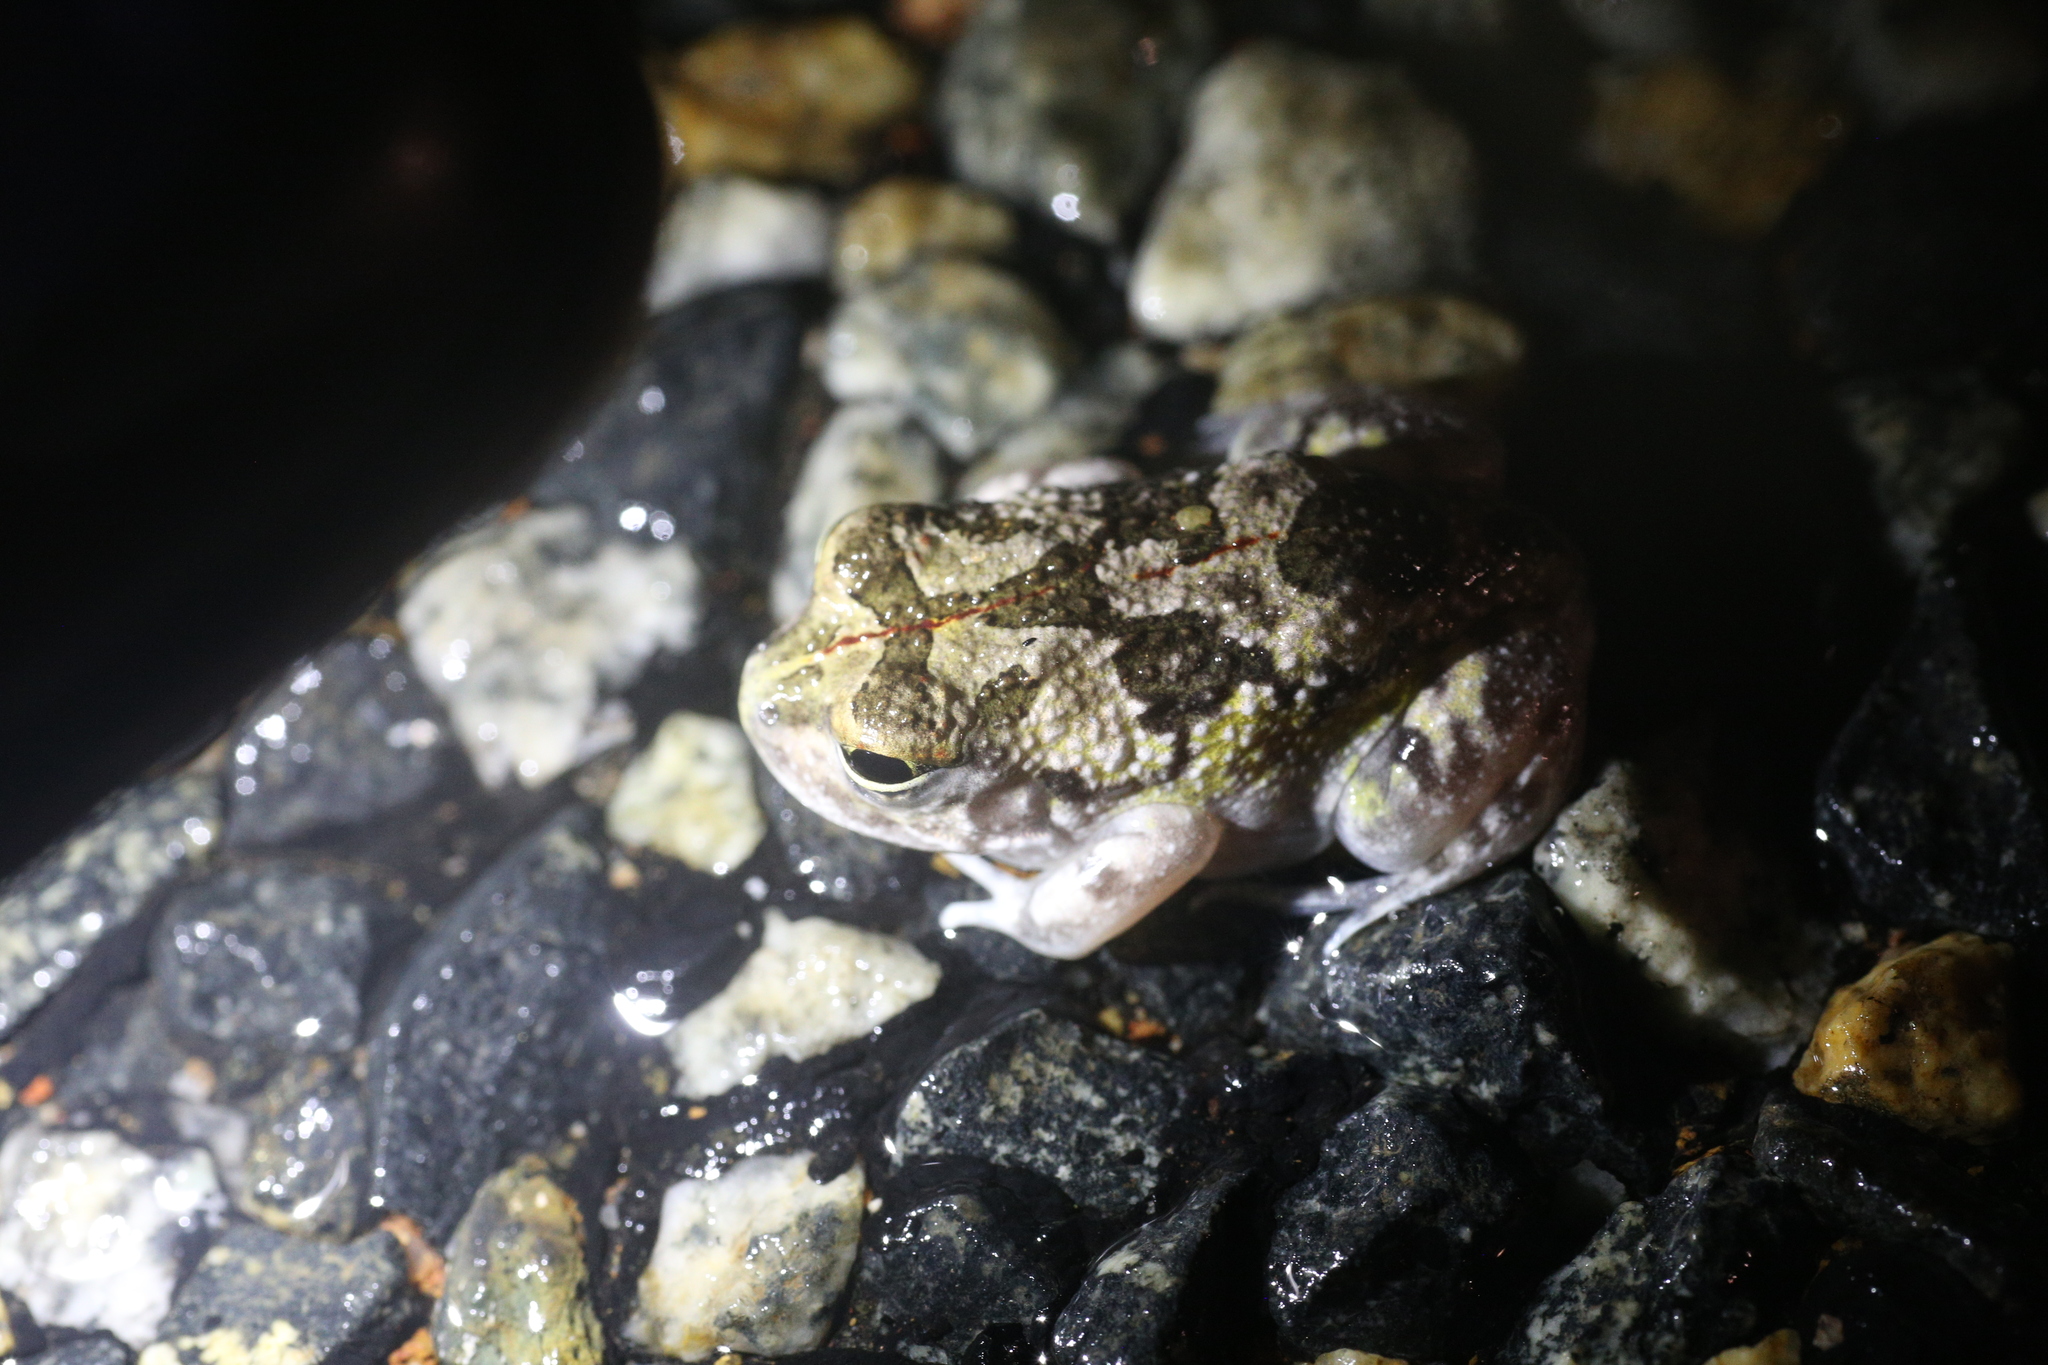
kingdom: Animalia
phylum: Chordata
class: Amphibia
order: Anura
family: Limnodynastidae
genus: Neobatrachus
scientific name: Neobatrachus pelobatoides
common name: Humming frog
